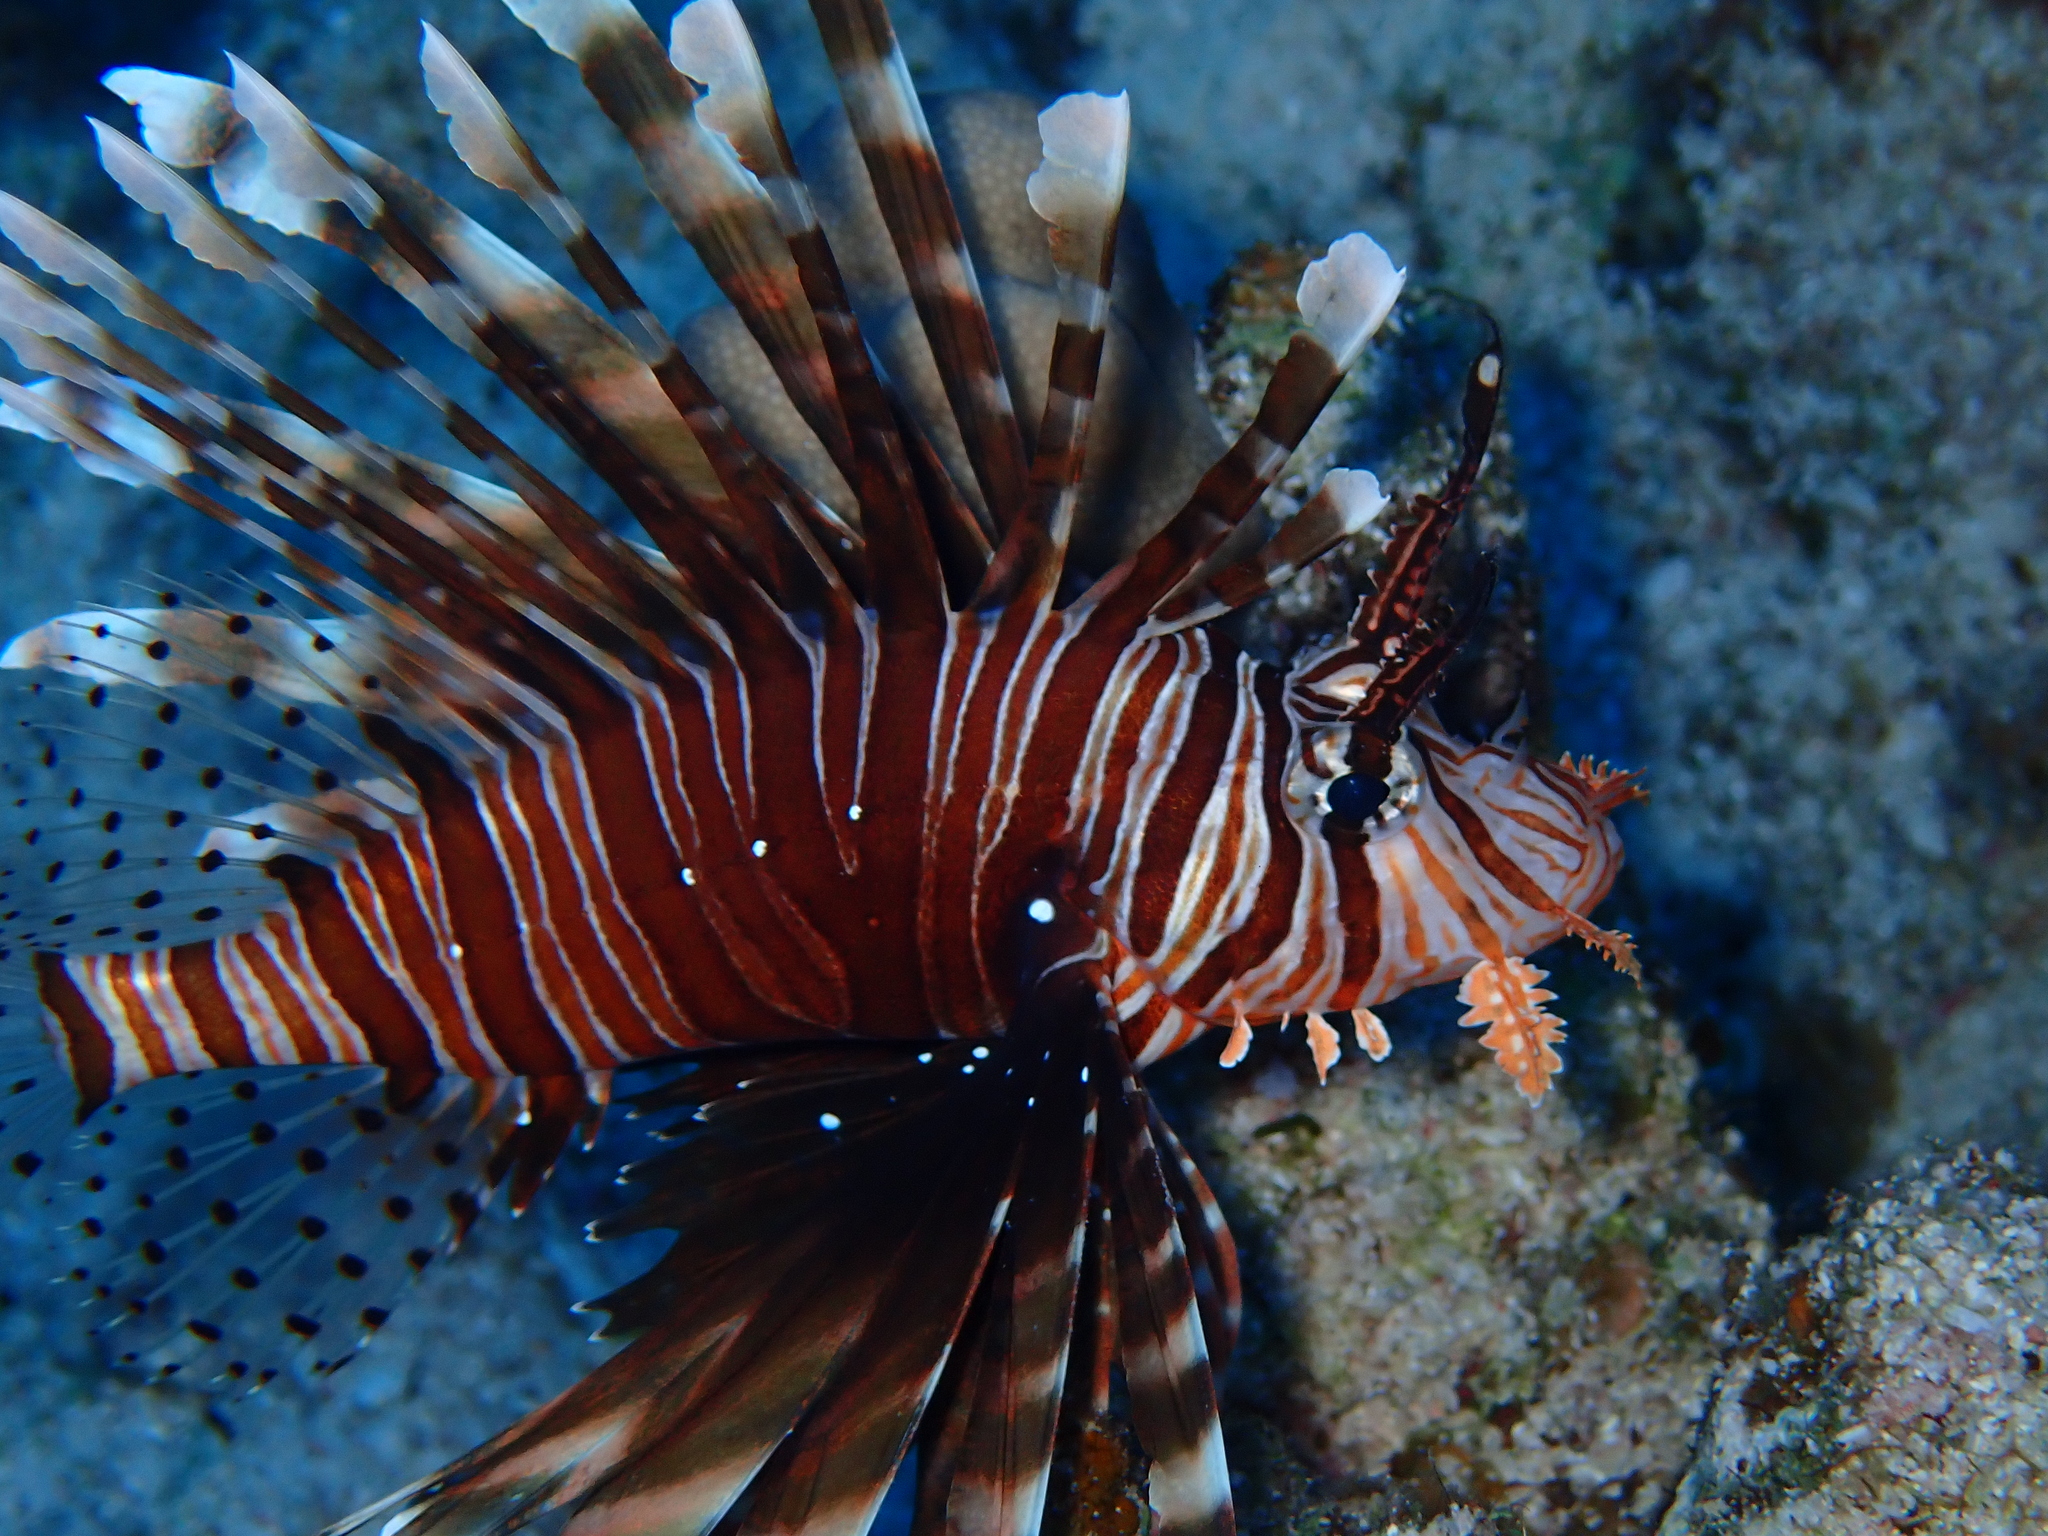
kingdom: Animalia
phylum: Chordata
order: Scorpaeniformes
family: Scorpaenidae
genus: Pterois
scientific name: Pterois miles
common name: Devil firefish
